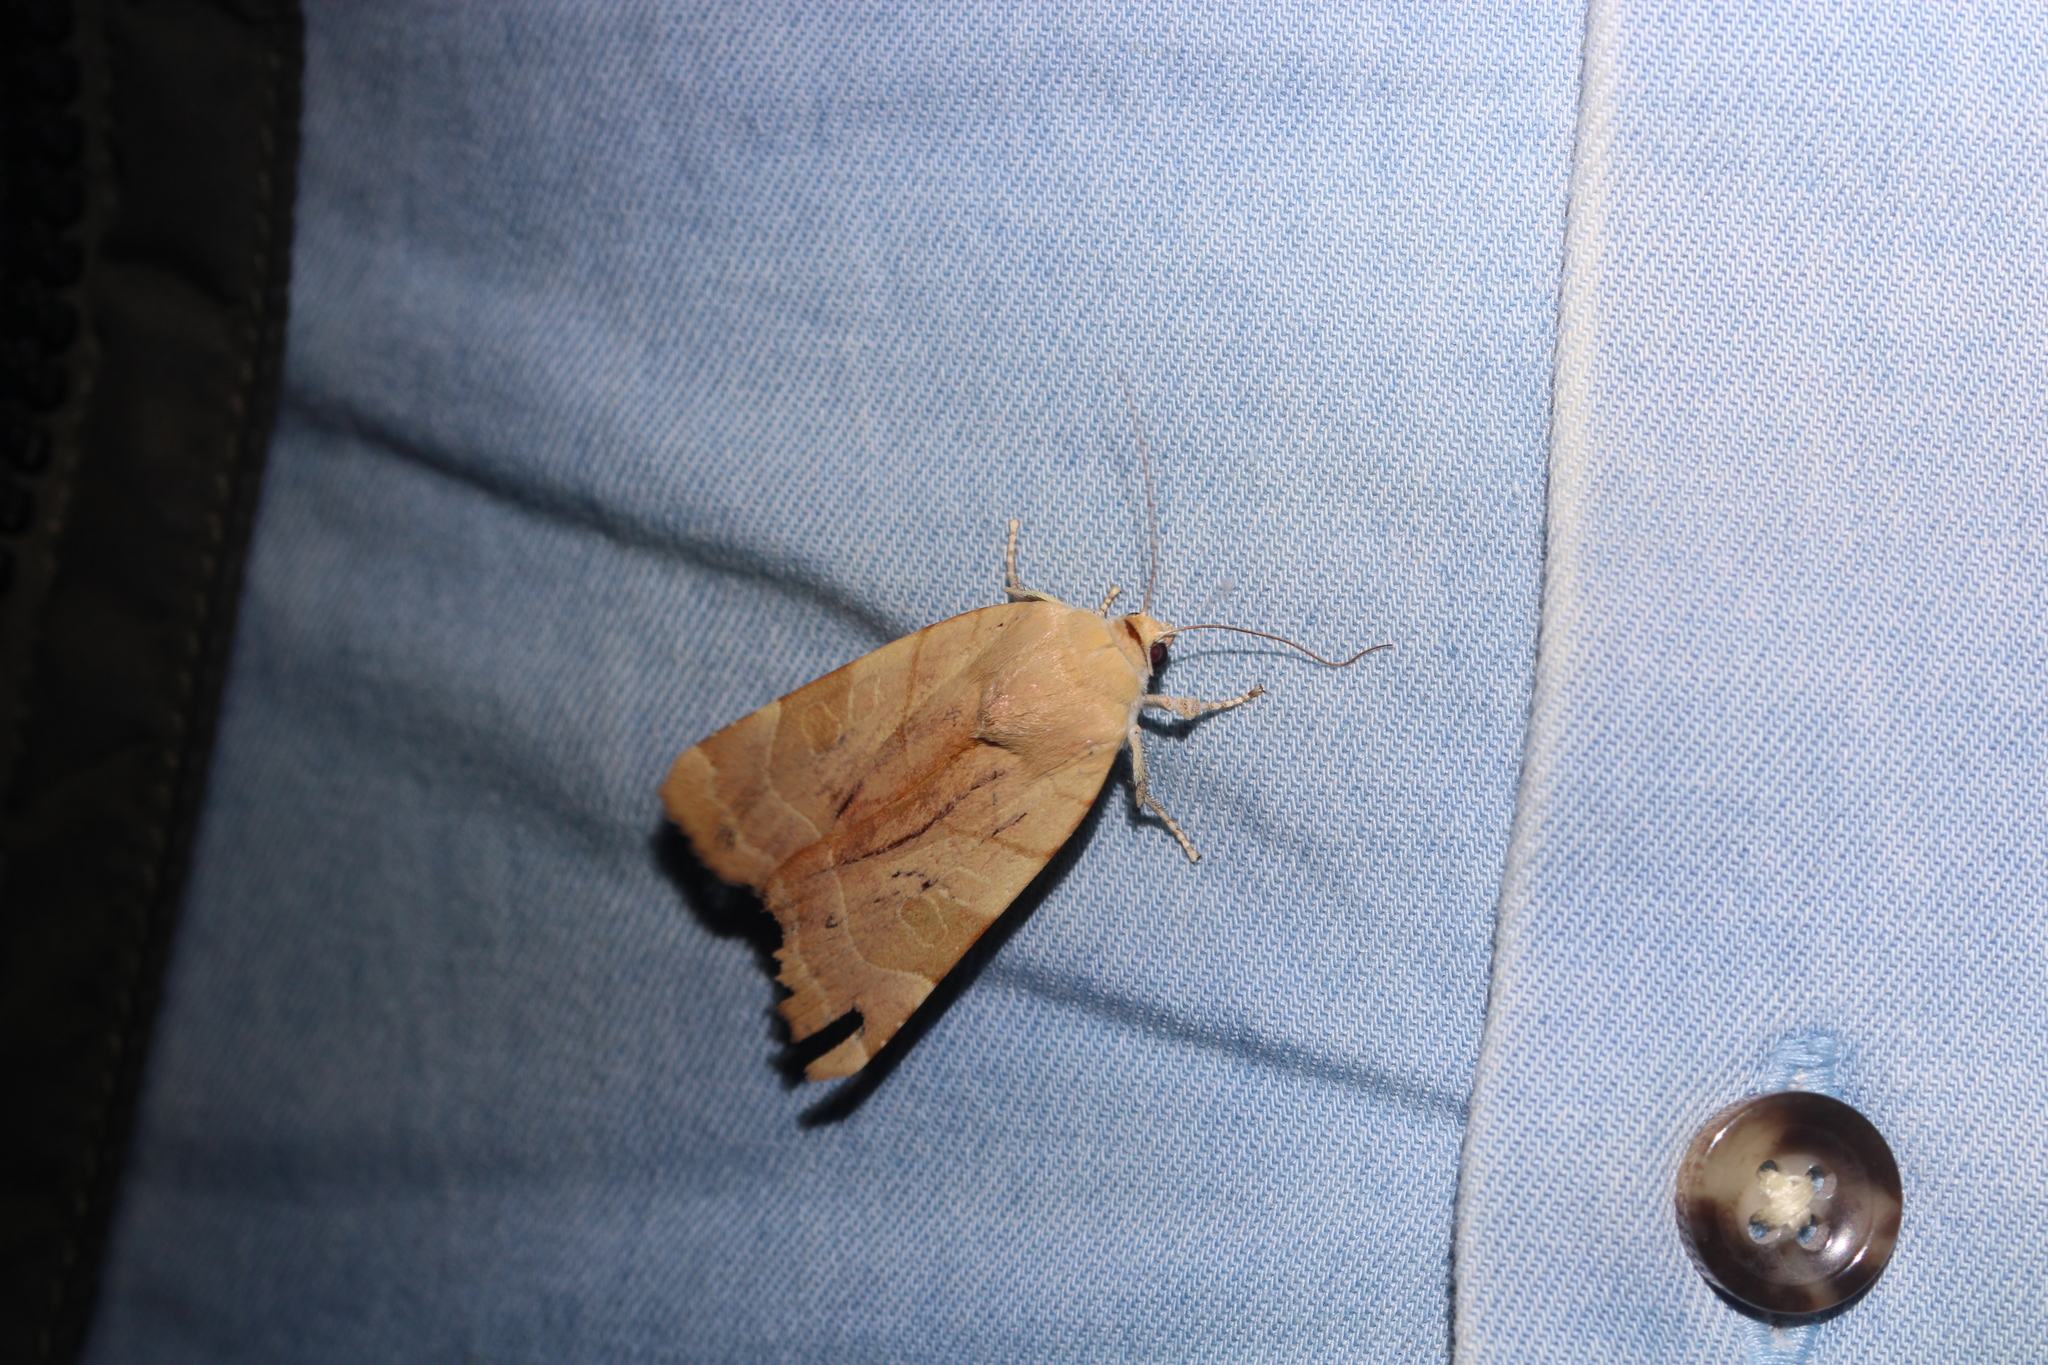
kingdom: Animalia
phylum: Arthropoda
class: Insecta
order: Lepidoptera
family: Noctuidae
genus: Noctua
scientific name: Noctua fimbriata
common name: Broad-bordered yellow underwing
